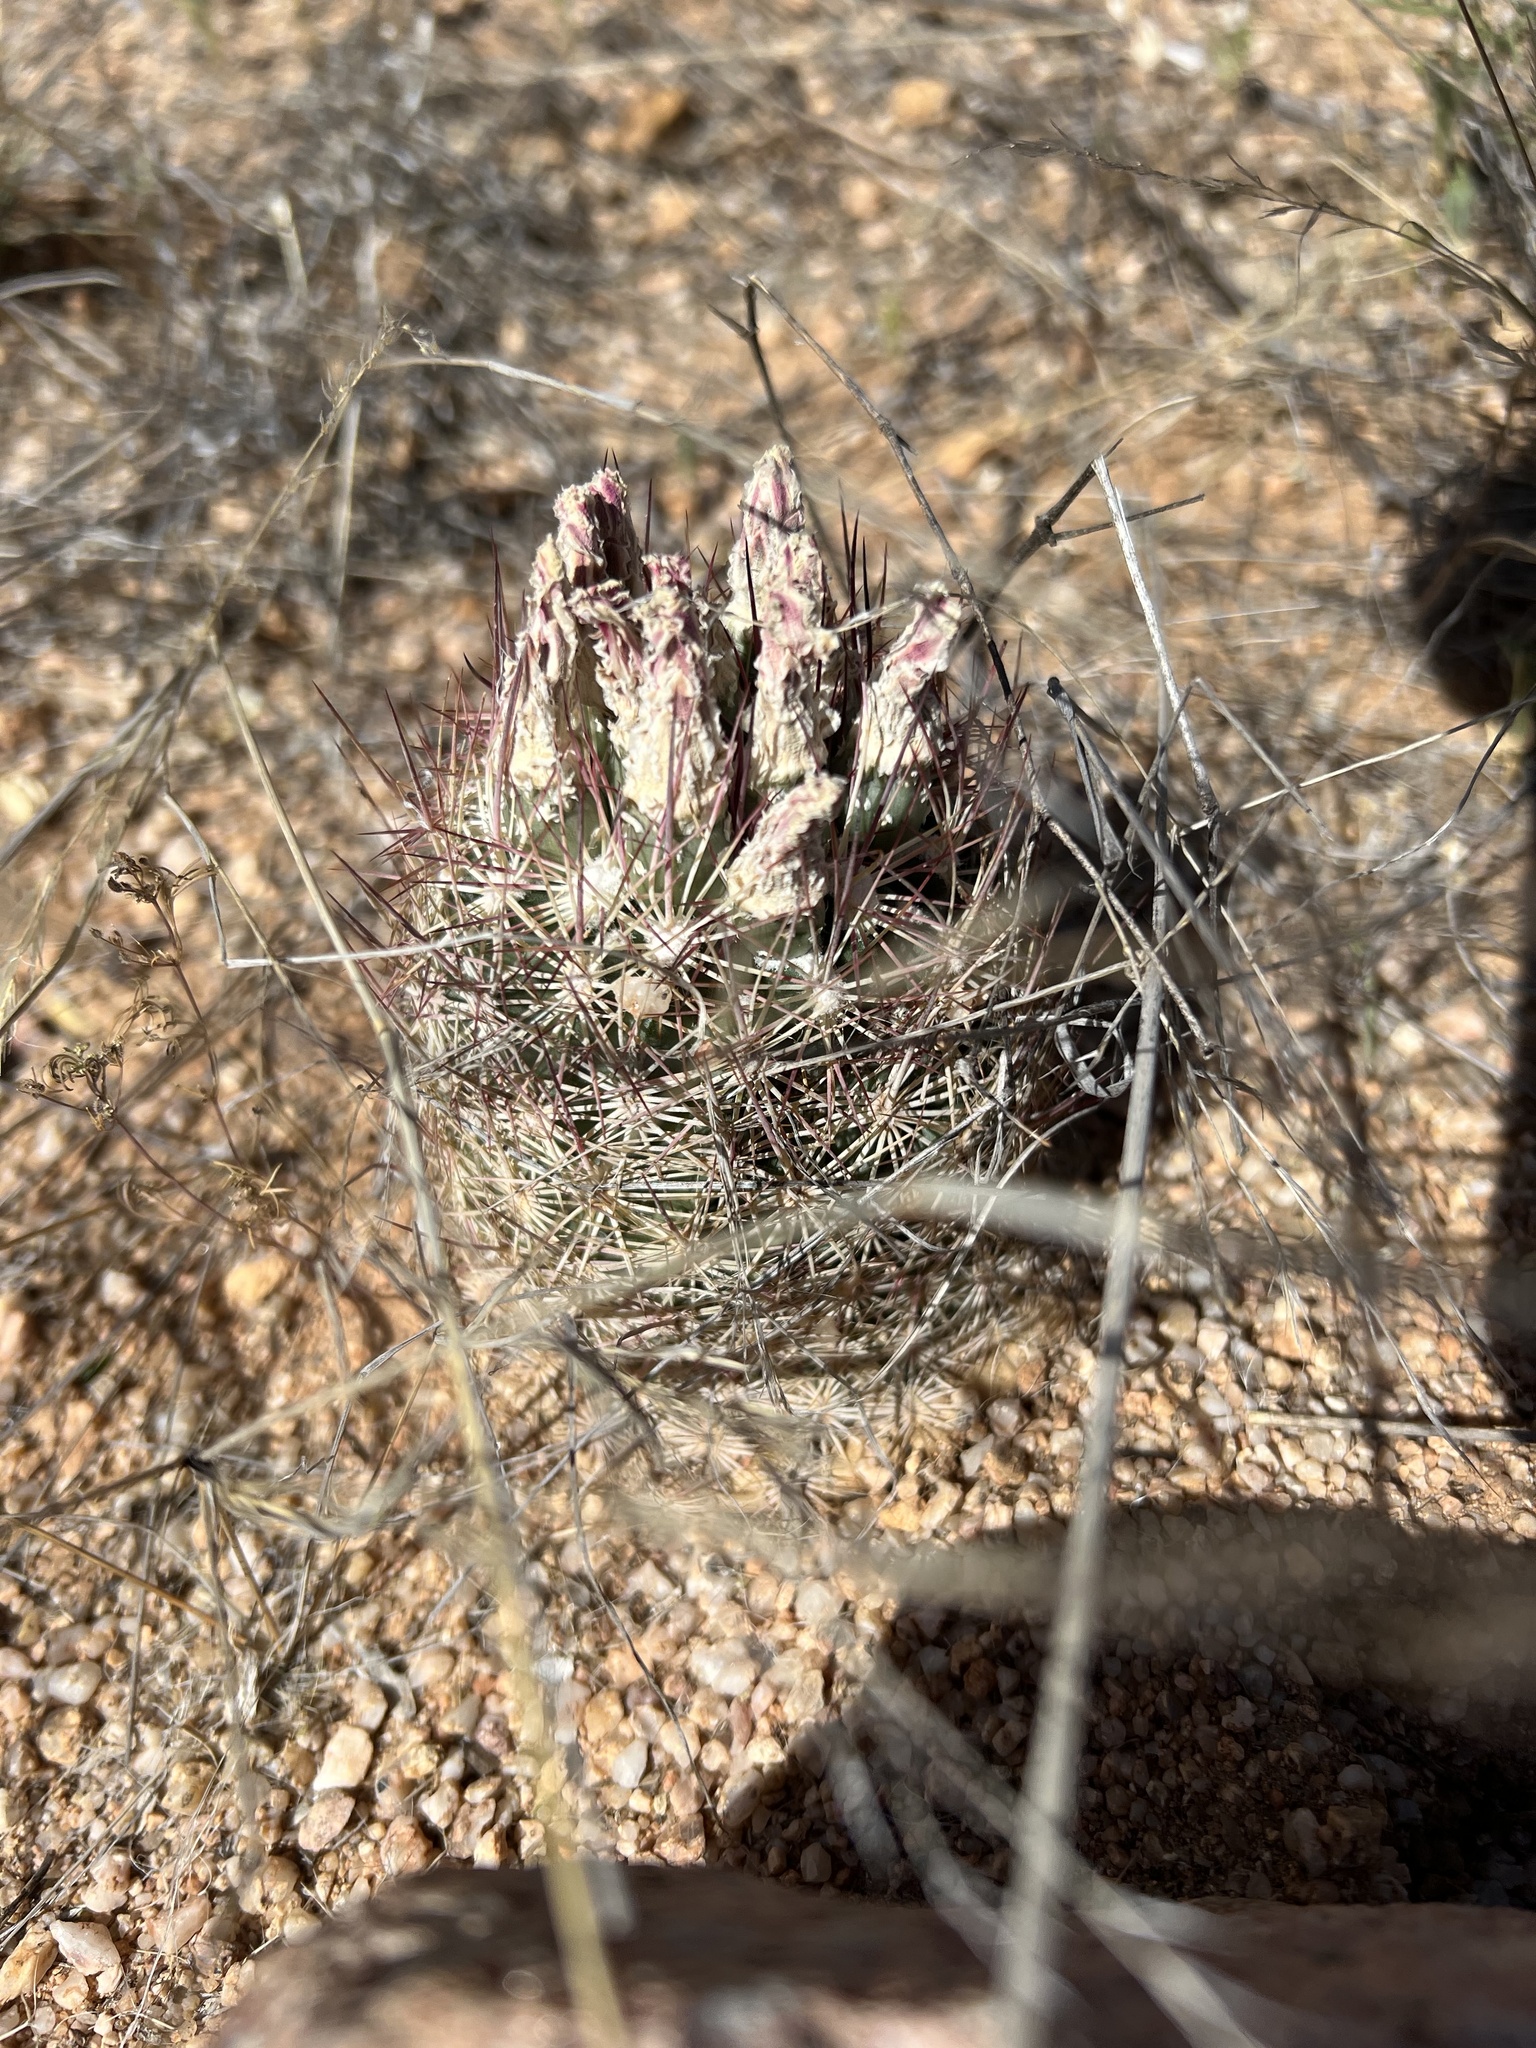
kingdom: Plantae
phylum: Tracheophyta
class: Magnoliopsida
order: Caryophyllales
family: Cactaceae
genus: Sclerocactus
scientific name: Sclerocactus intertextus
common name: White fish-hook cactus
